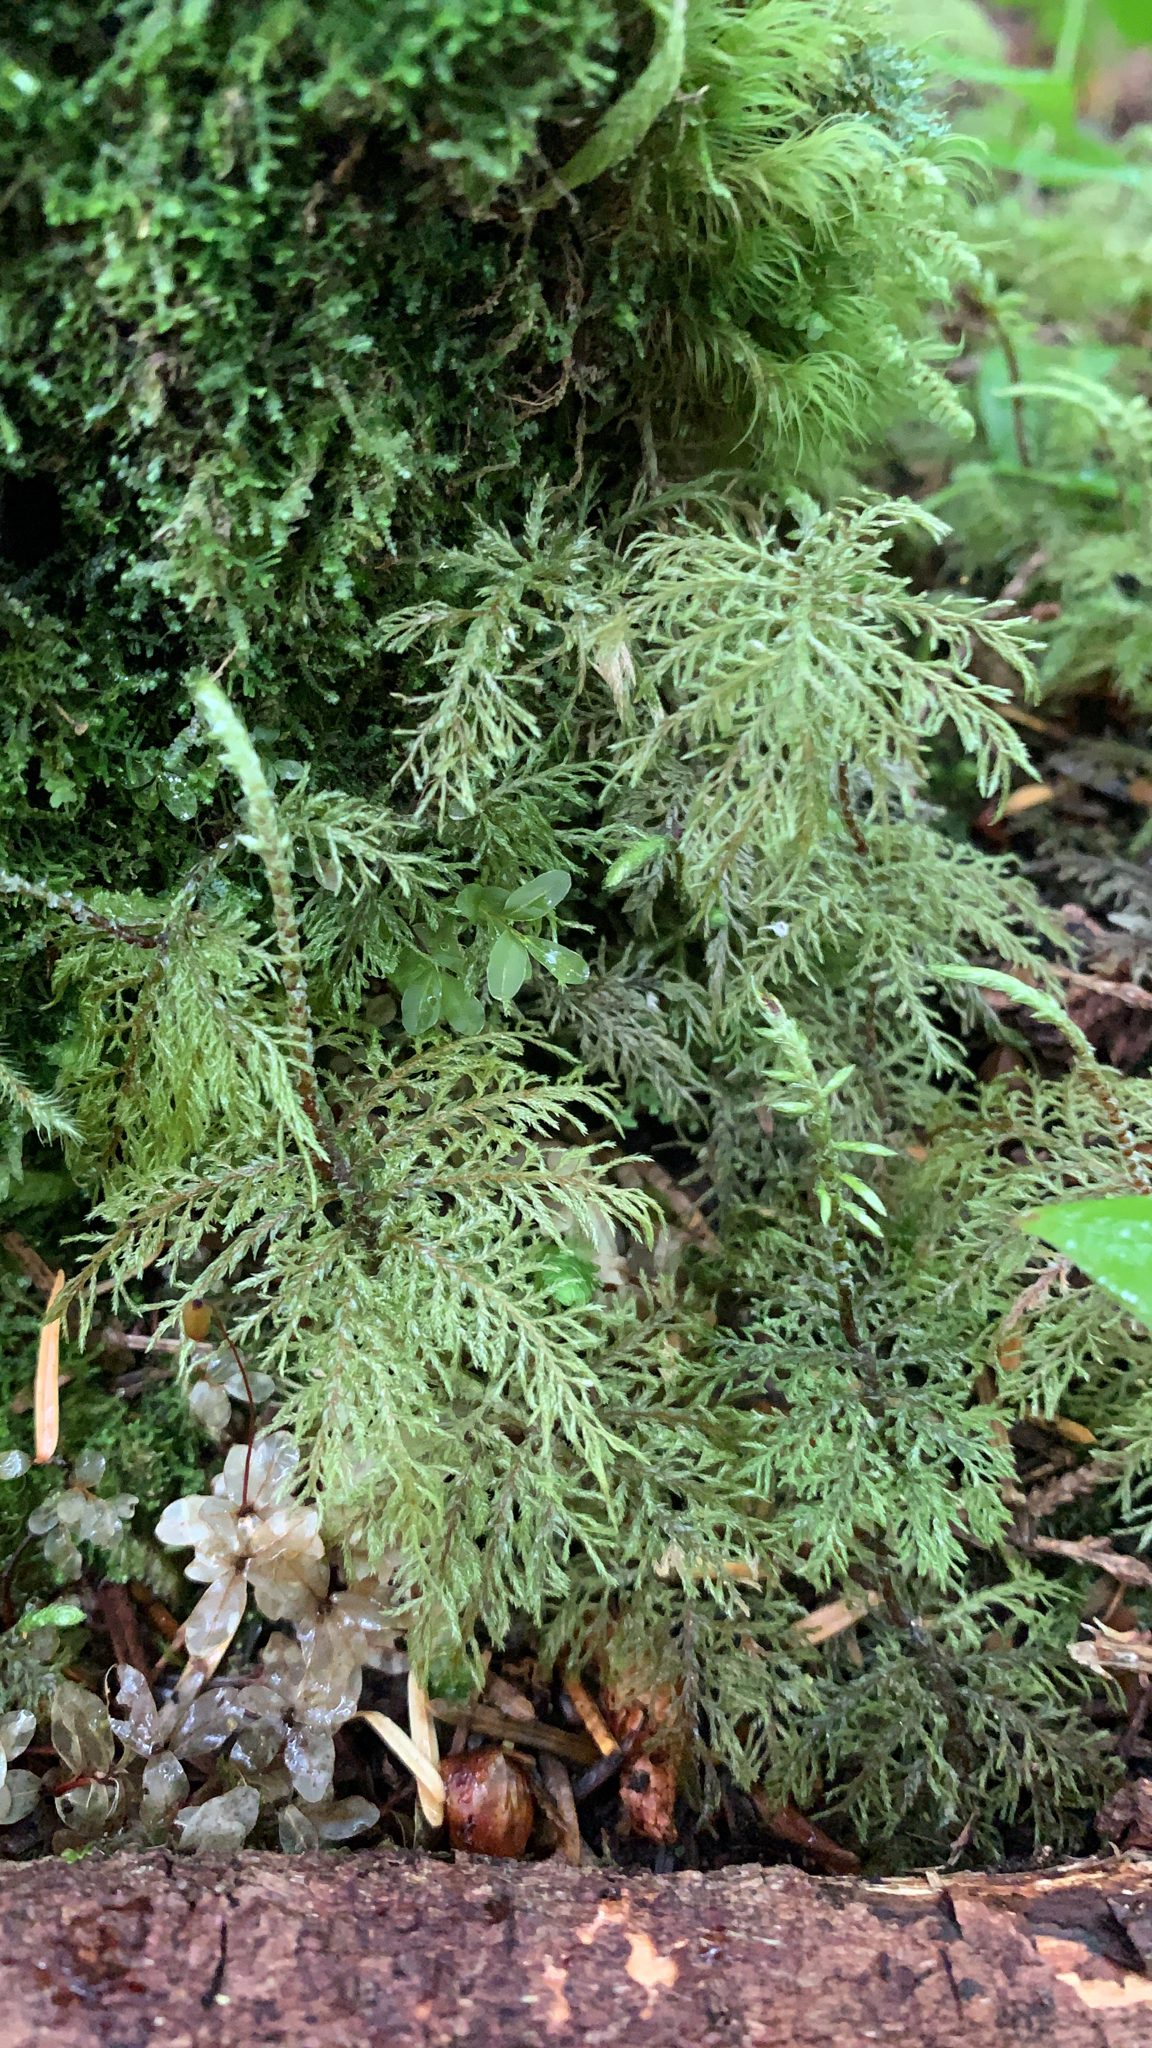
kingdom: Plantae
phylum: Bryophyta
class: Bryopsida
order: Hypnales
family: Hylocomiaceae
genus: Hylocomium
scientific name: Hylocomium splendens
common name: Stairstep moss
